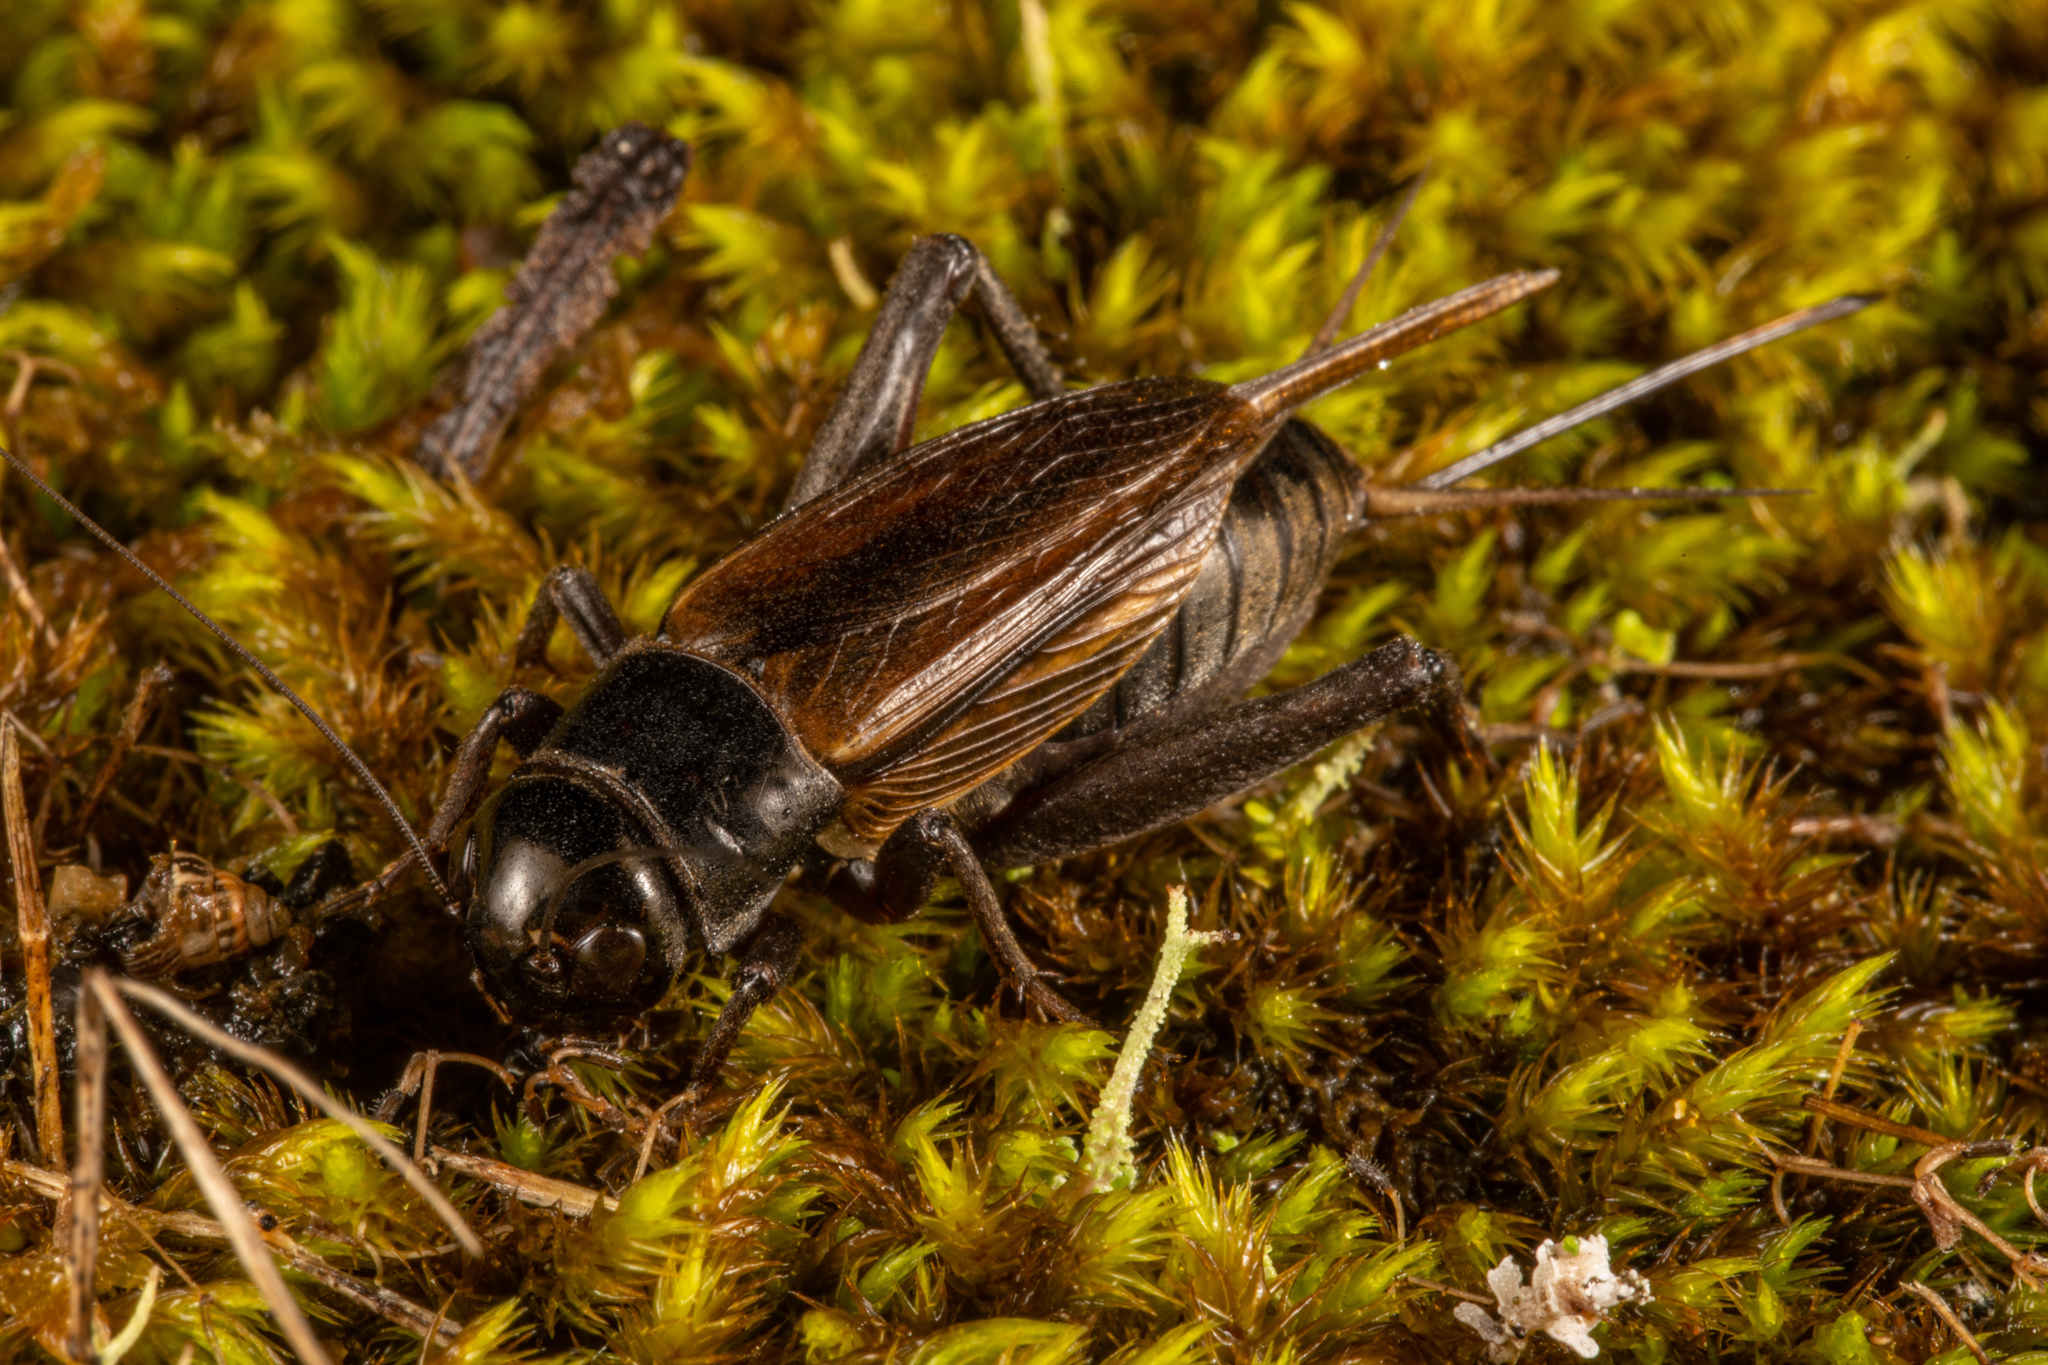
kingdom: Animalia
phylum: Arthropoda
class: Insecta
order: Orthoptera
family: Gryllidae
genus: Teleogryllus
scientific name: Teleogryllus commodus
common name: Black field cricket
